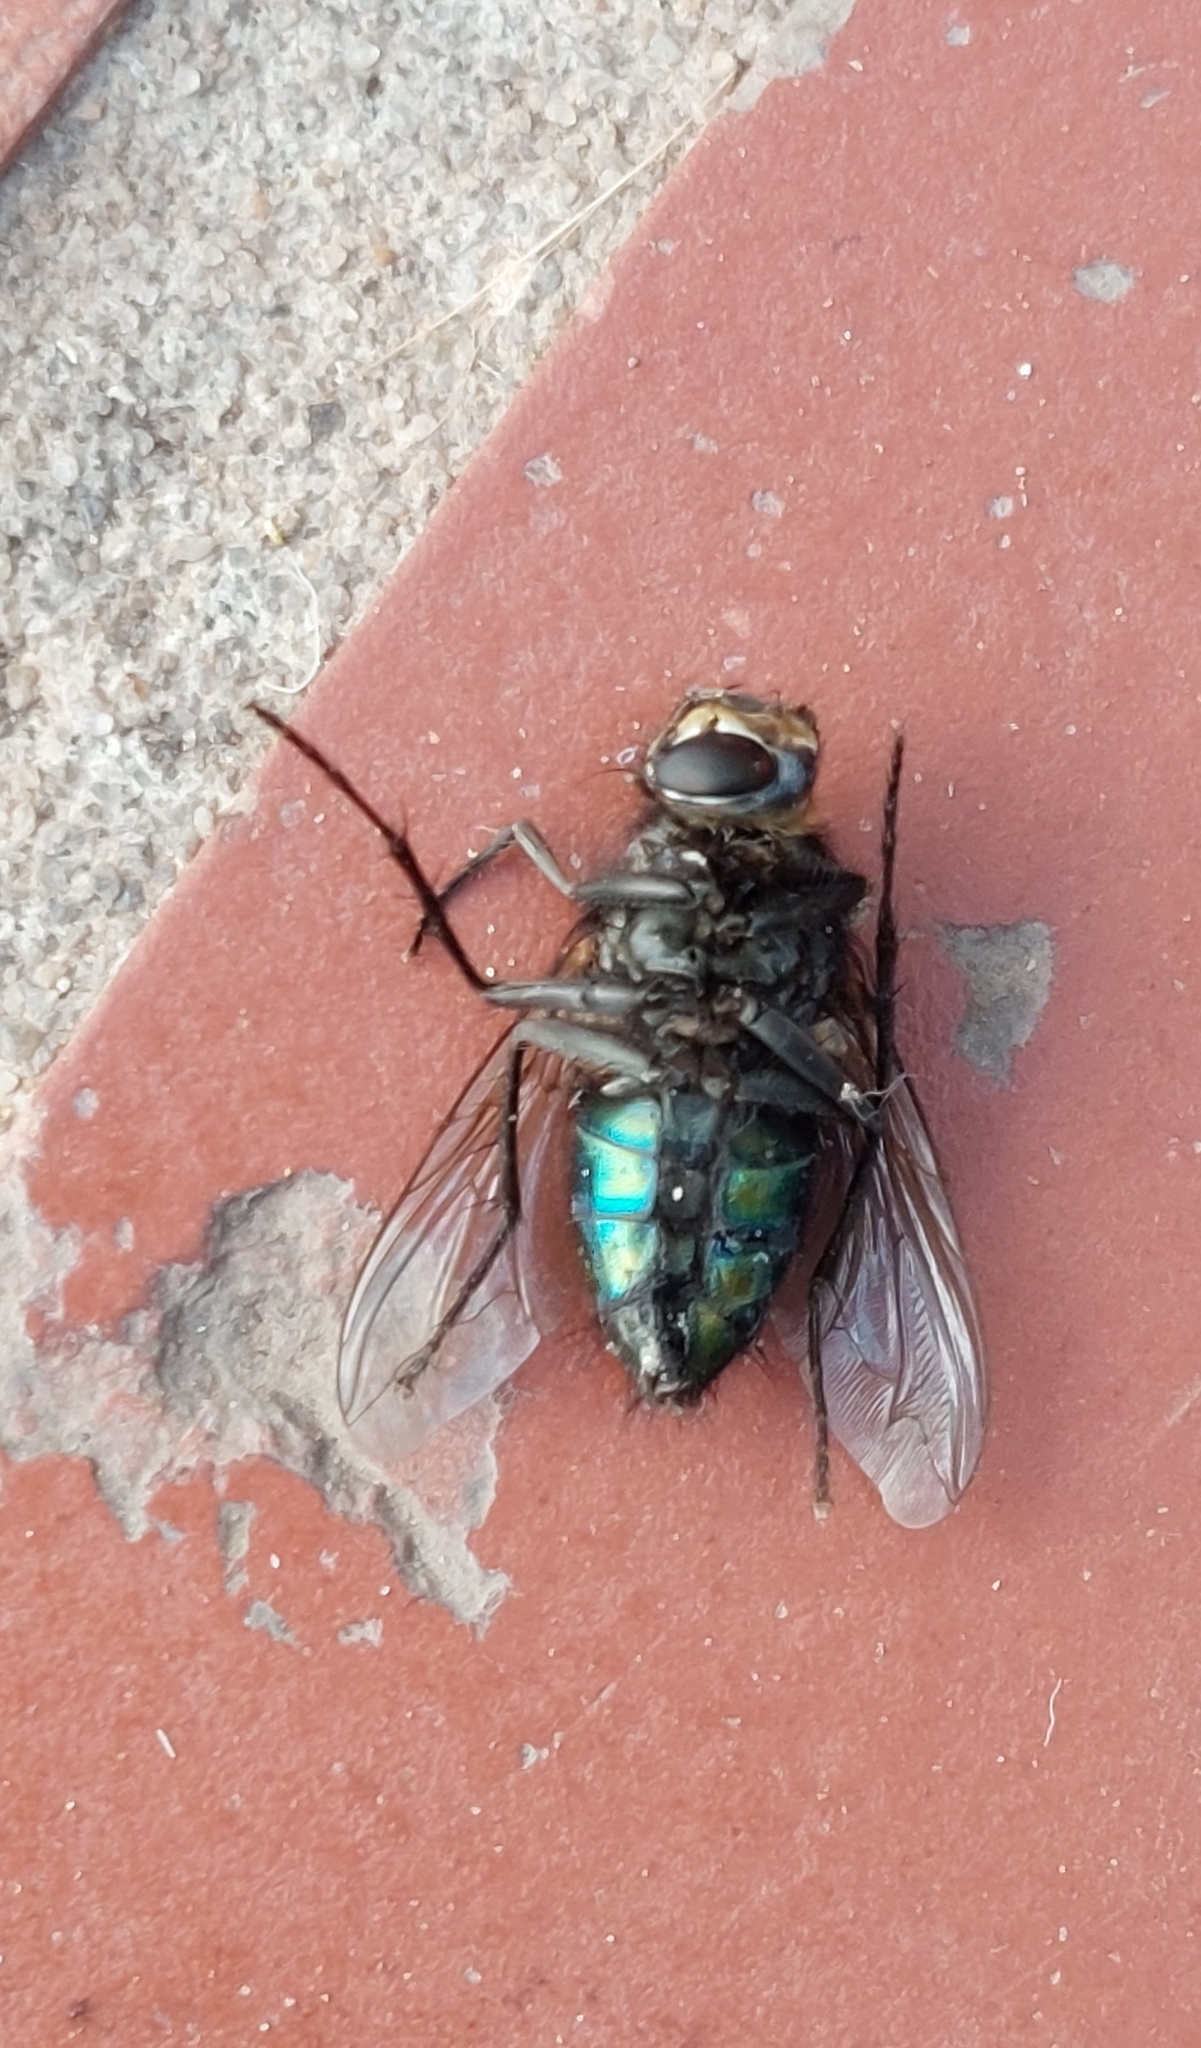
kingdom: Animalia
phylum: Arthropoda
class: Insecta
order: Diptera
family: Calliphoridae
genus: Sarconesia
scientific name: Sarconesia chlorogaster
